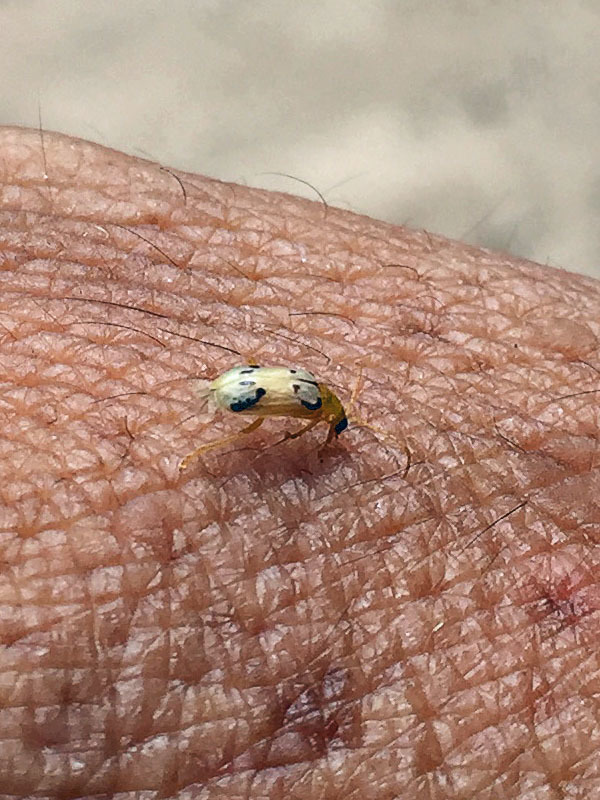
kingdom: Animalia
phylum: Arthropoda
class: Insecta
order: Coleoptera
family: Chrysomelidae
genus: Diabrotica
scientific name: Diabrotica
